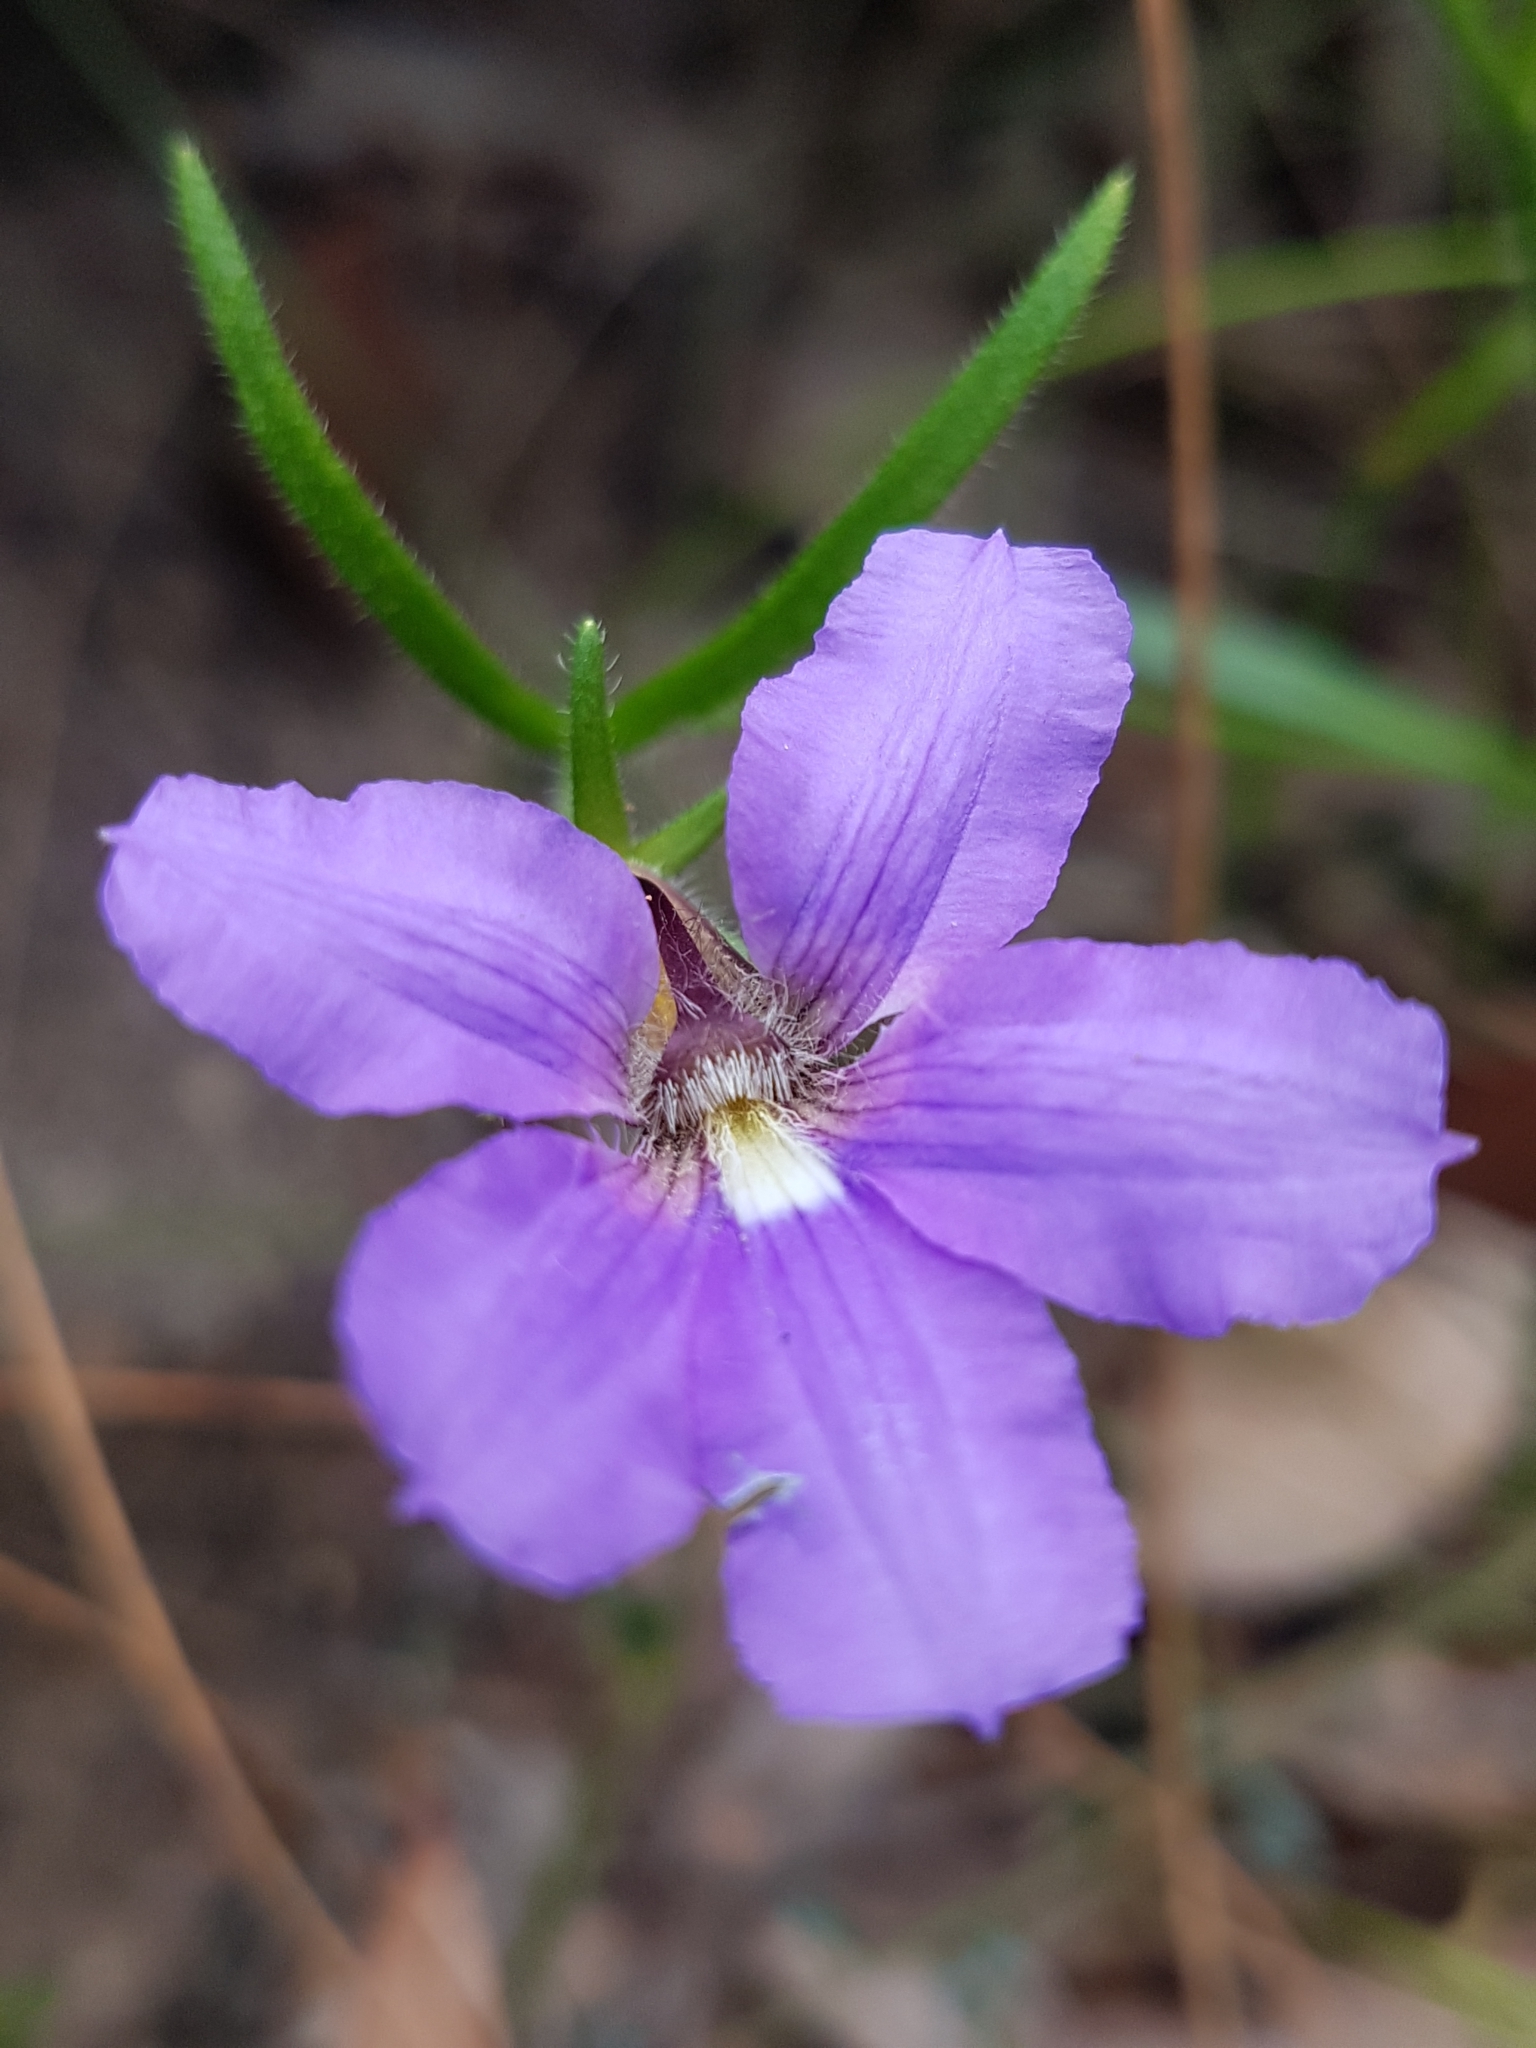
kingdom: Plantae
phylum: Tracheophyta
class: Magnoliopsida
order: Asterales
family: Goodeniaceae
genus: Scaevola
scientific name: Scaevola ramosissima
